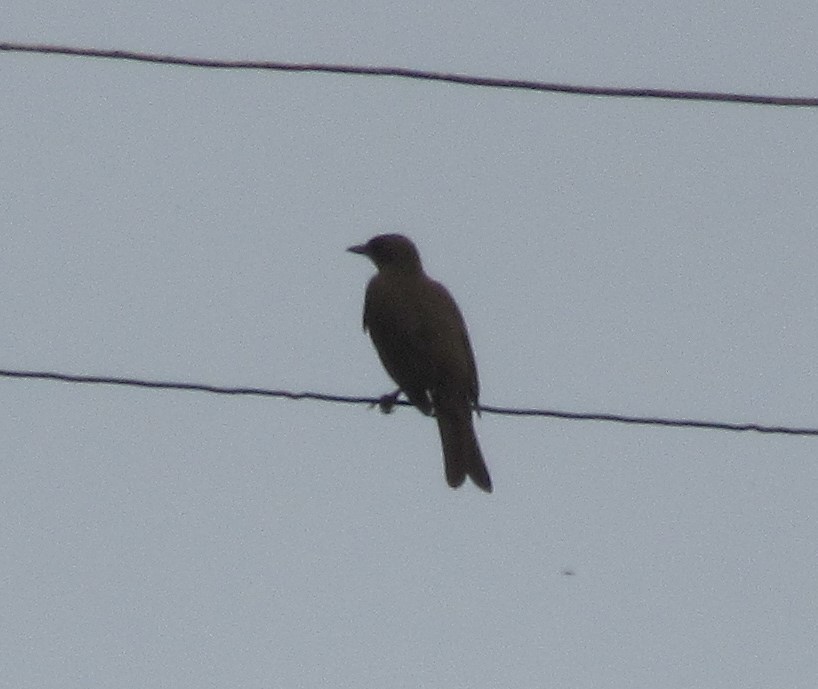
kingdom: Animalia
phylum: Chordata
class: Aves
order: Passeriformes
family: Turdidae
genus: Turdus
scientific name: Turdus ignobilis
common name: Black-billed thrush
